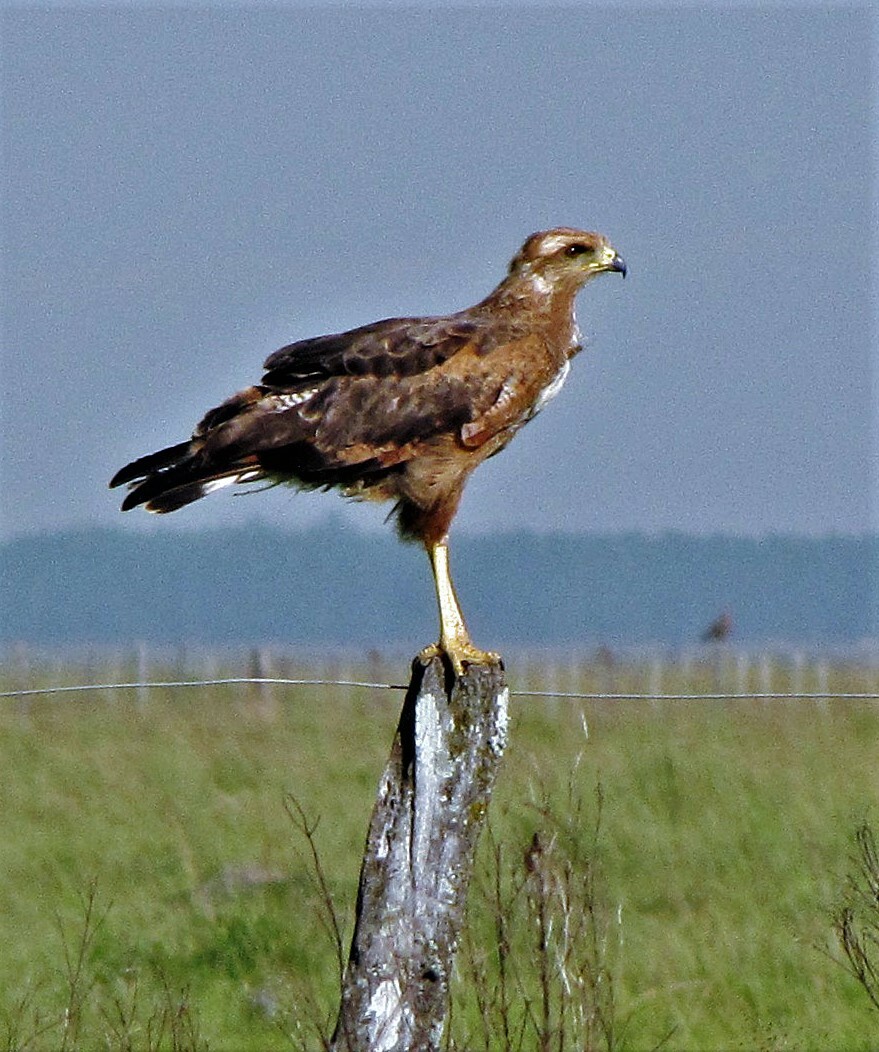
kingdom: Animalia
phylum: Chordata
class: Aves
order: Accipitriformes
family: Accipitridae
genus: Buteogallus
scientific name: Buteogallus meridionalis
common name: Savanna hawk
